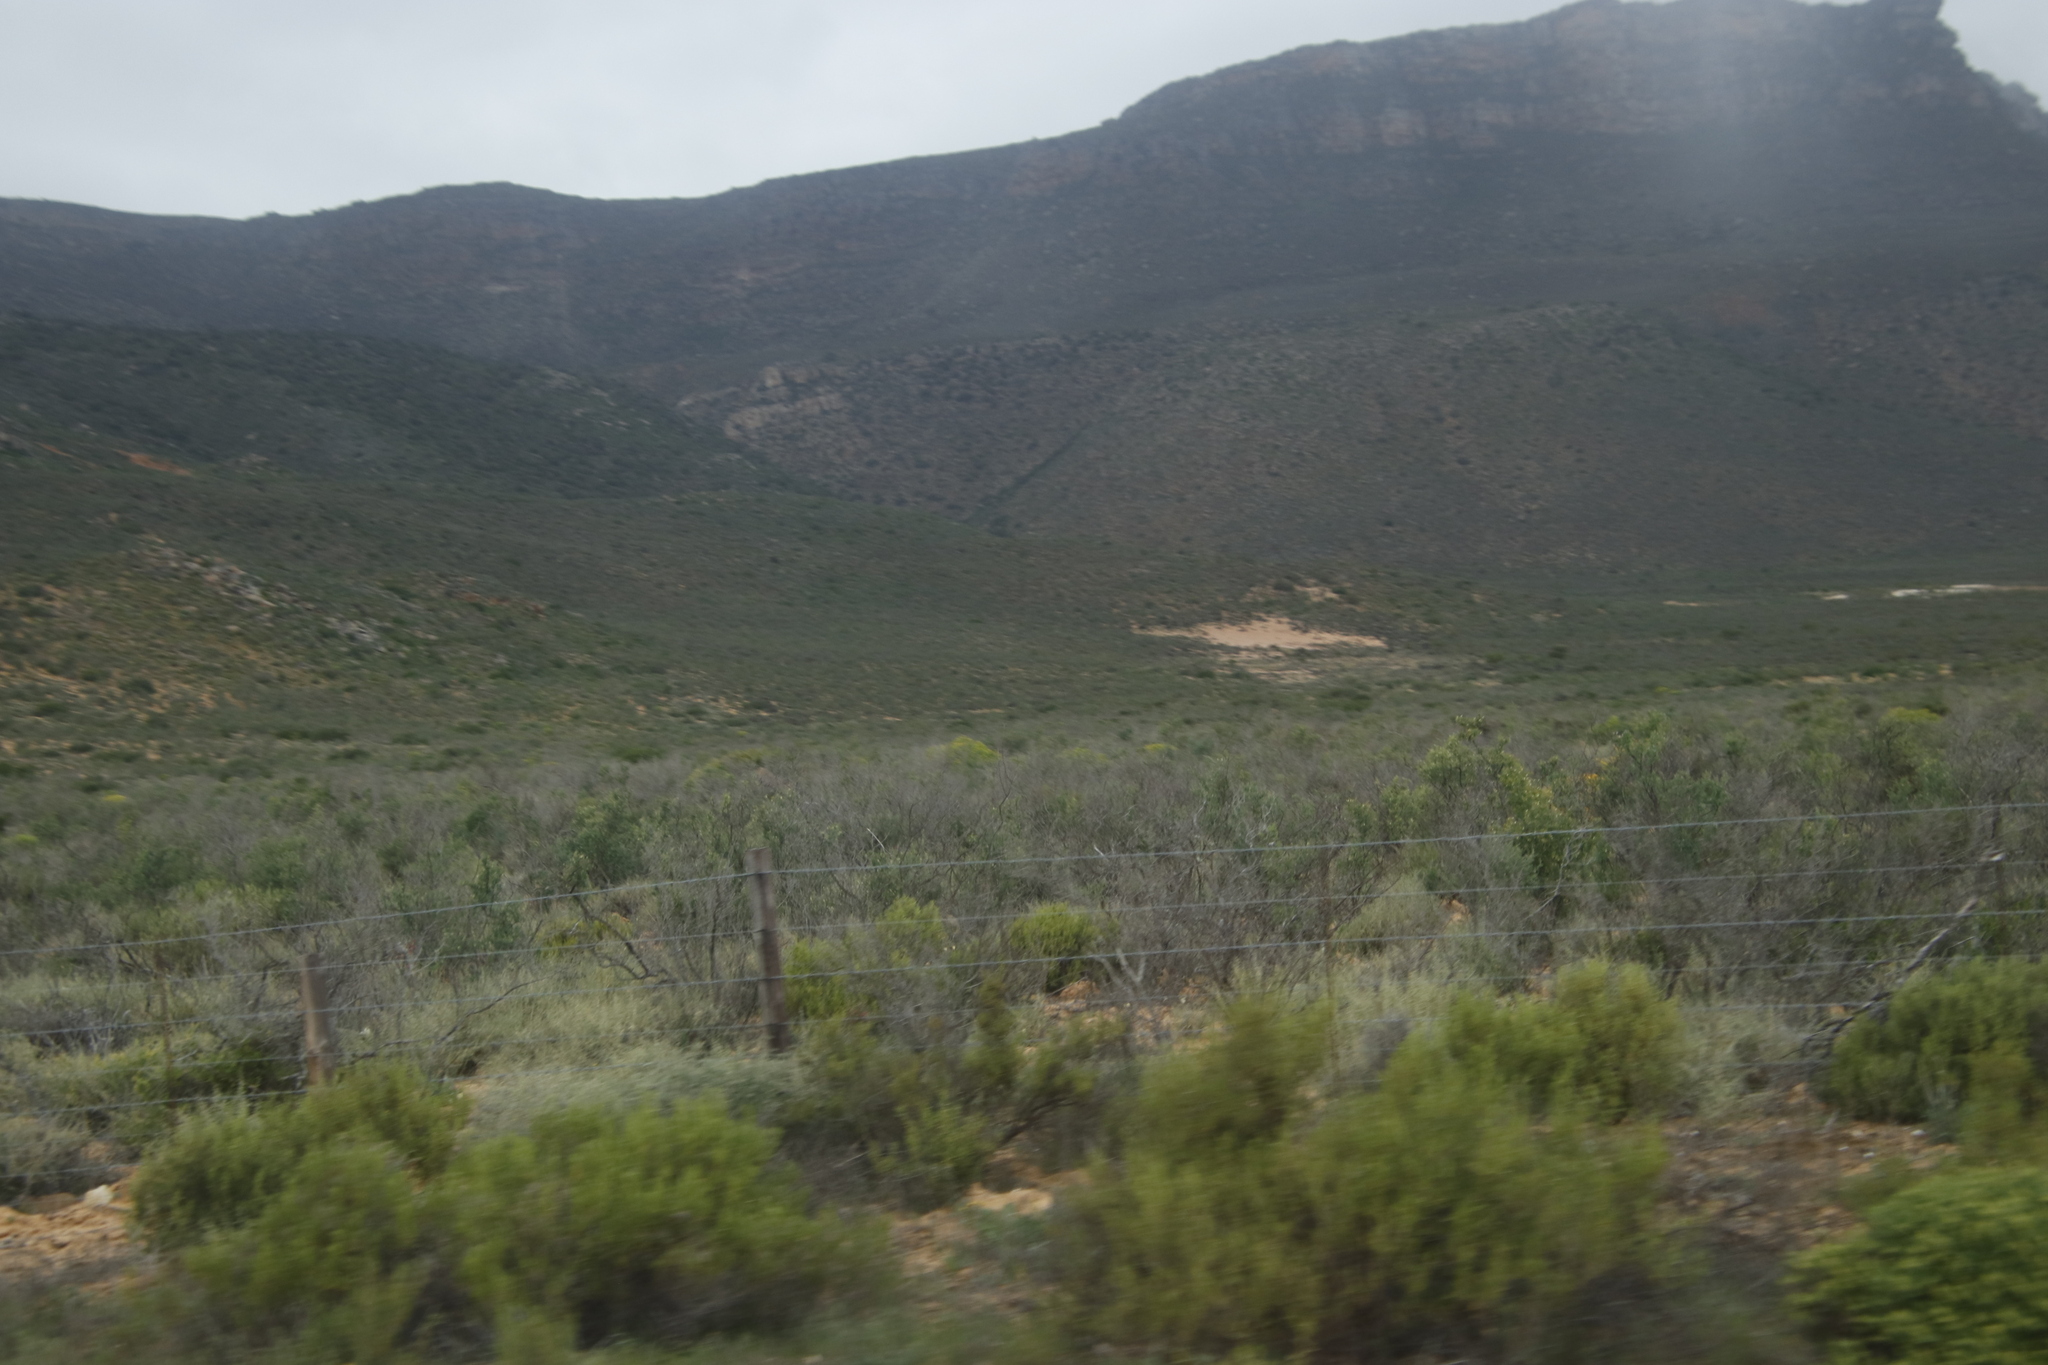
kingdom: Plantae
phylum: Tracheophyta
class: Magnoliopsida
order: Solanales
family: Montiniaceae
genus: Montinia
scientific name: Montinia caryophyllacea
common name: Wild clove-bush
